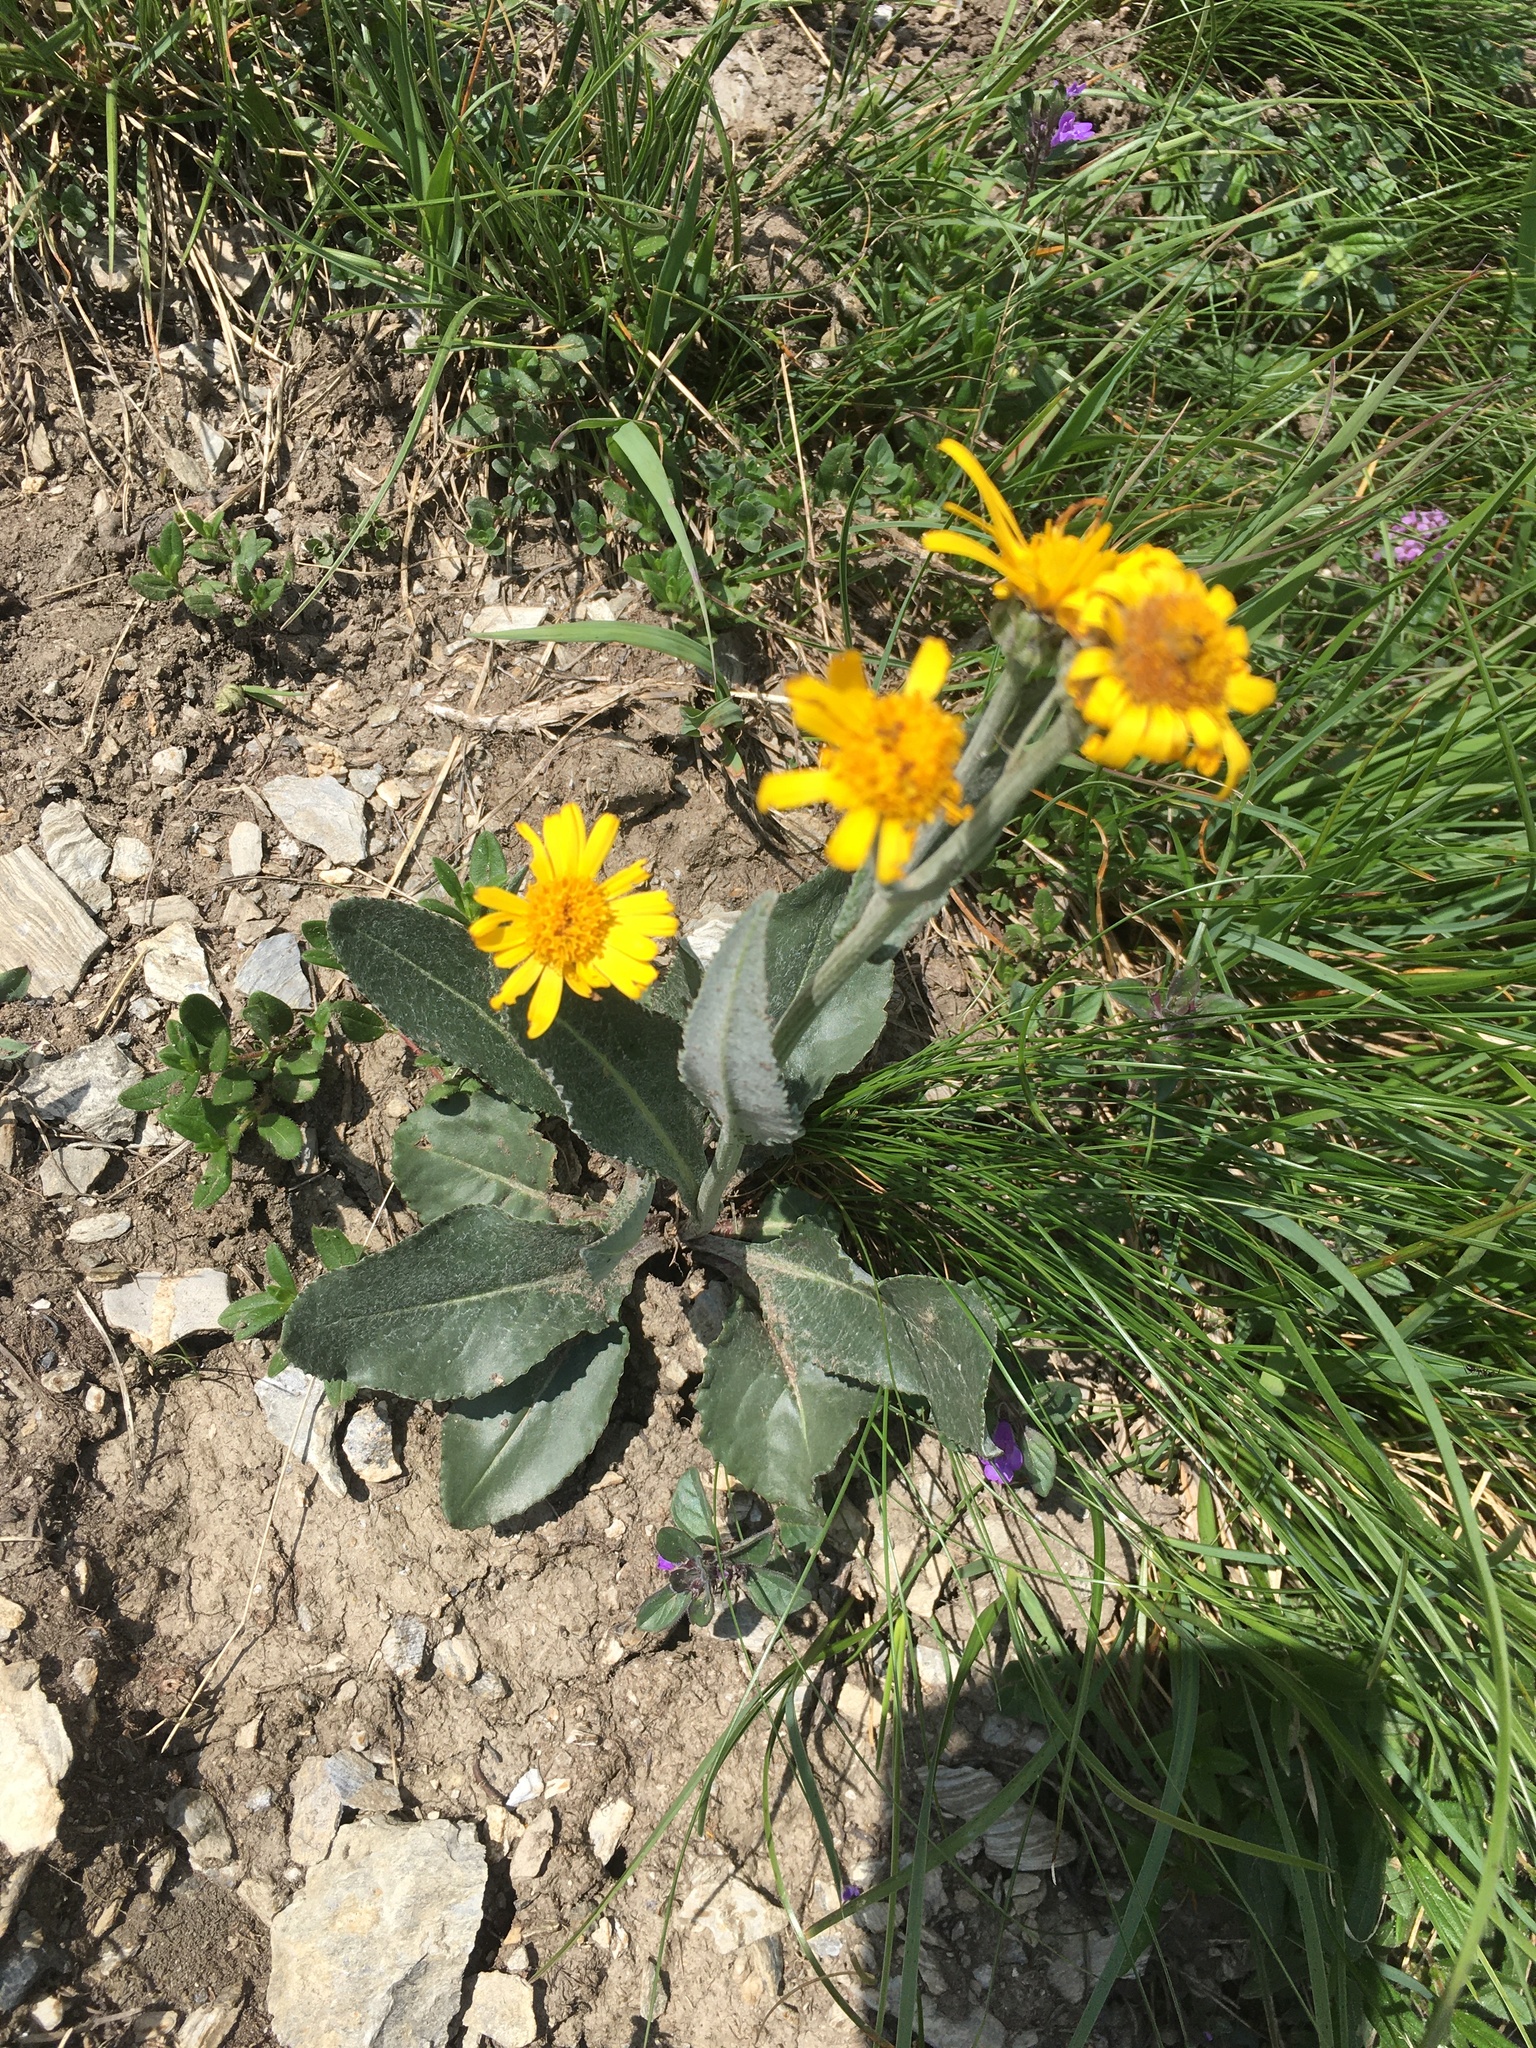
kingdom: Plantae
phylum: Tracheophyta
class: Magnoliopsida
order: Asterales
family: Asteraceae
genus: Senecio
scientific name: Senecio doronicum
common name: Chamois ragwort
